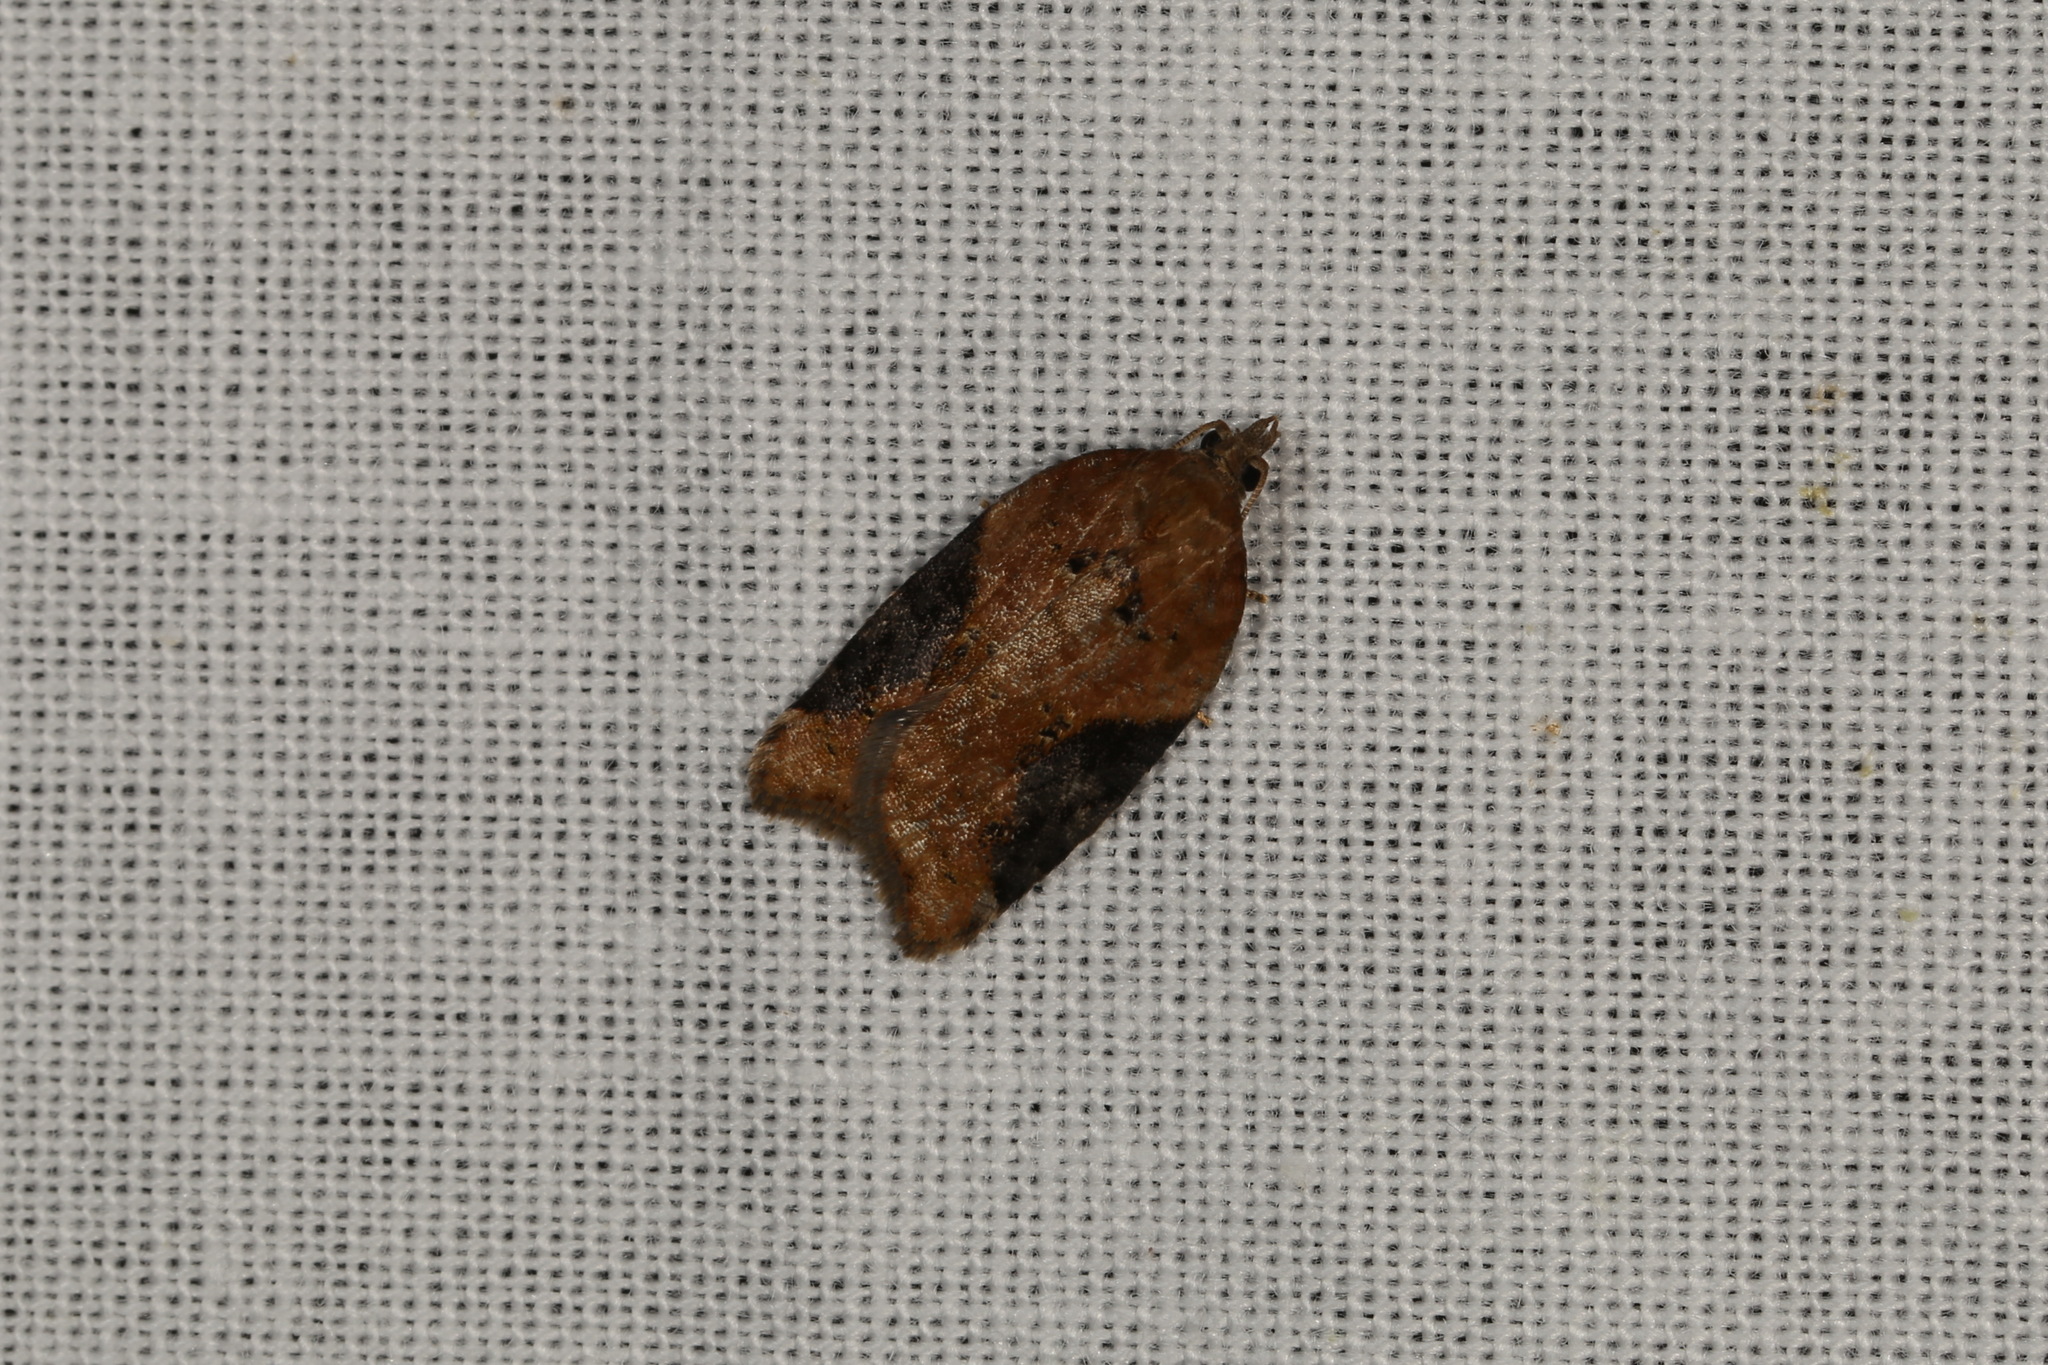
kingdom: Animalia
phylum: Arthropoda
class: Insecta
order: Lepidoptera
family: Tortricidae
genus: Acleris
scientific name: Acleris laterana
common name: Dark-triangle button
